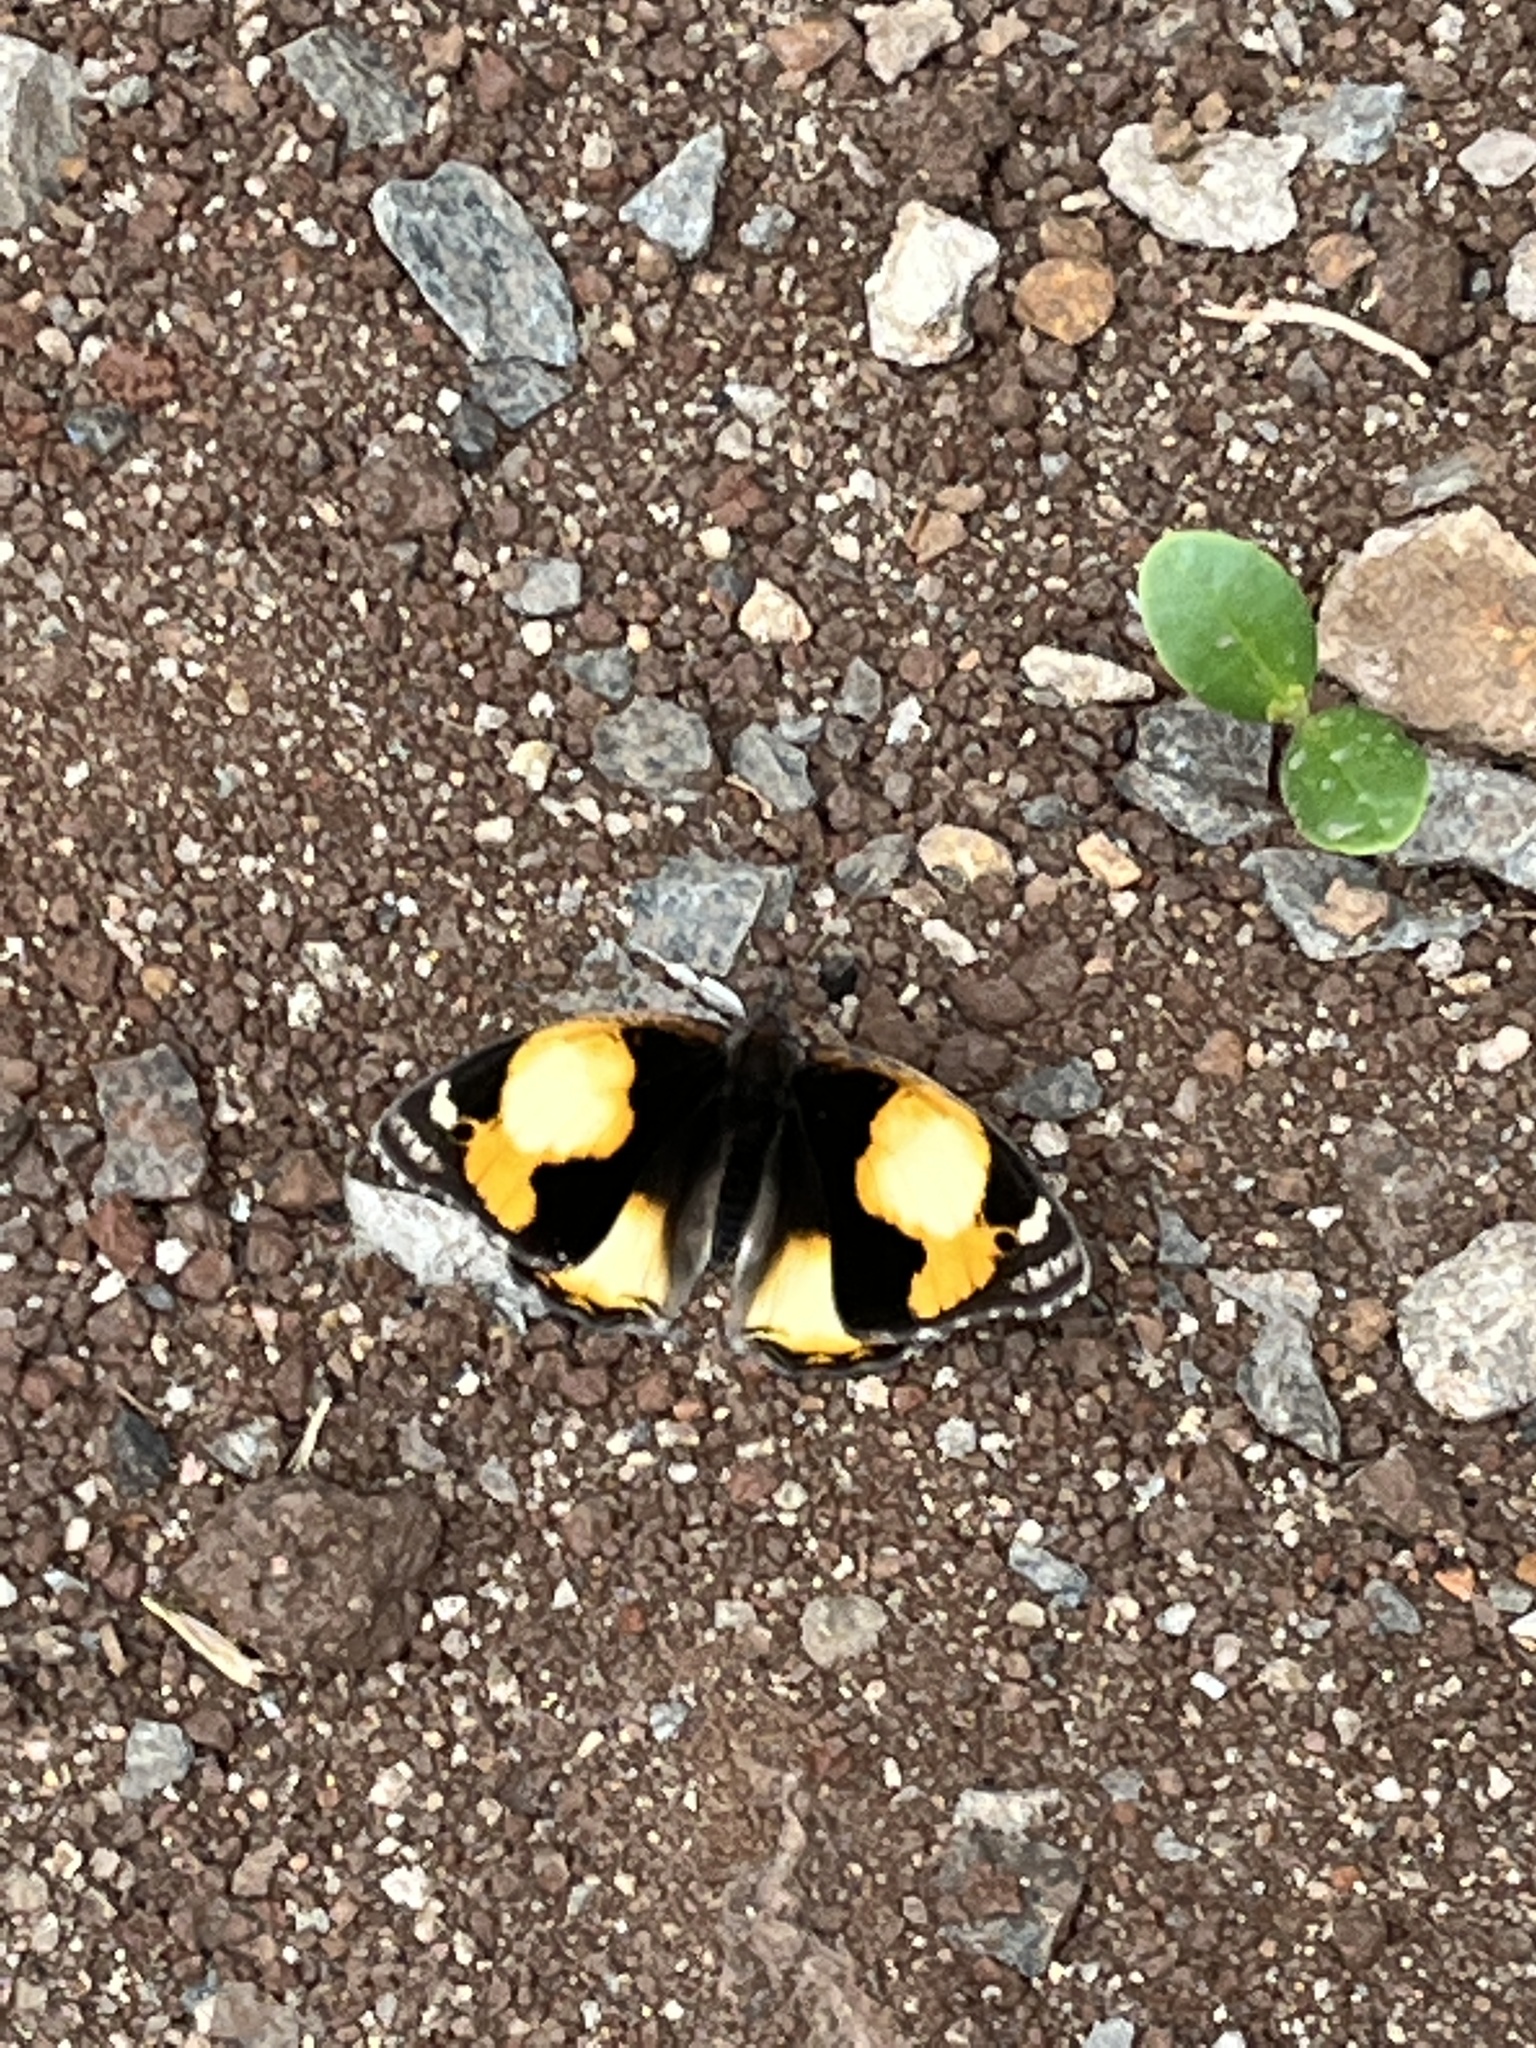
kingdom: Animalia
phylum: Arthropoda
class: Insecta
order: Lepidoptera
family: Nymphalidae
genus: Junonia
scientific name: Junonia hierta
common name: Yellow pansy
